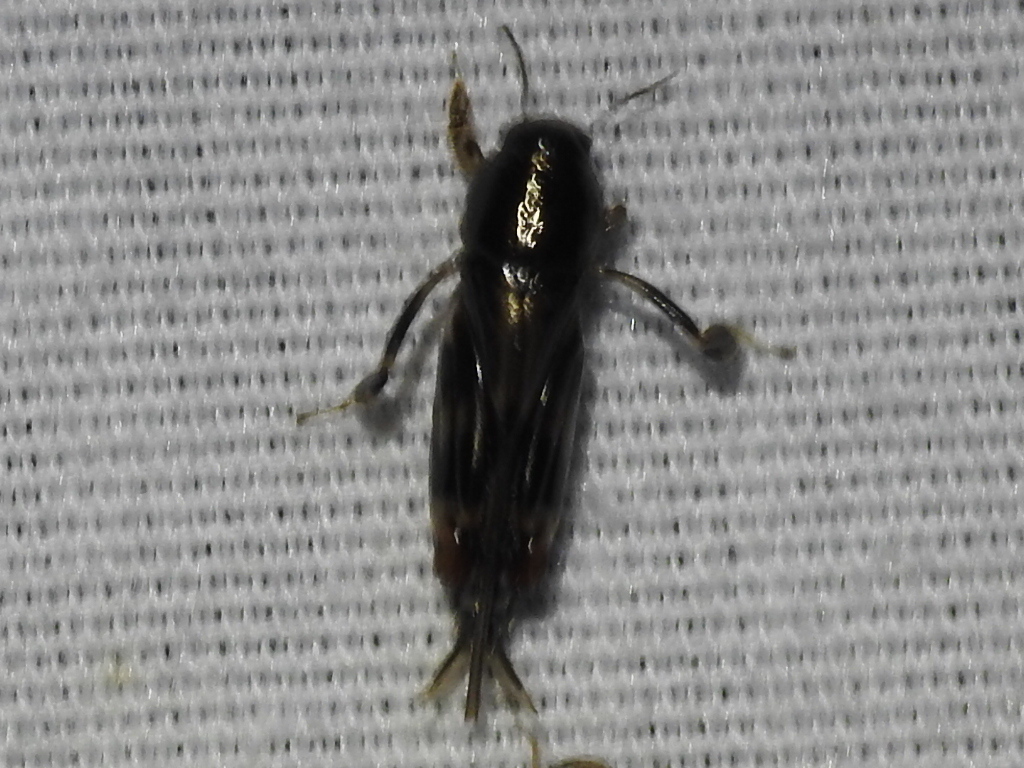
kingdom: Animalia
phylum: Arthropoda
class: Insecta
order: Orthoptera
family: Tridactylidae
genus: Neotridactylus
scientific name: Neotridactylus apicialis
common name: Larger pygmy locust
